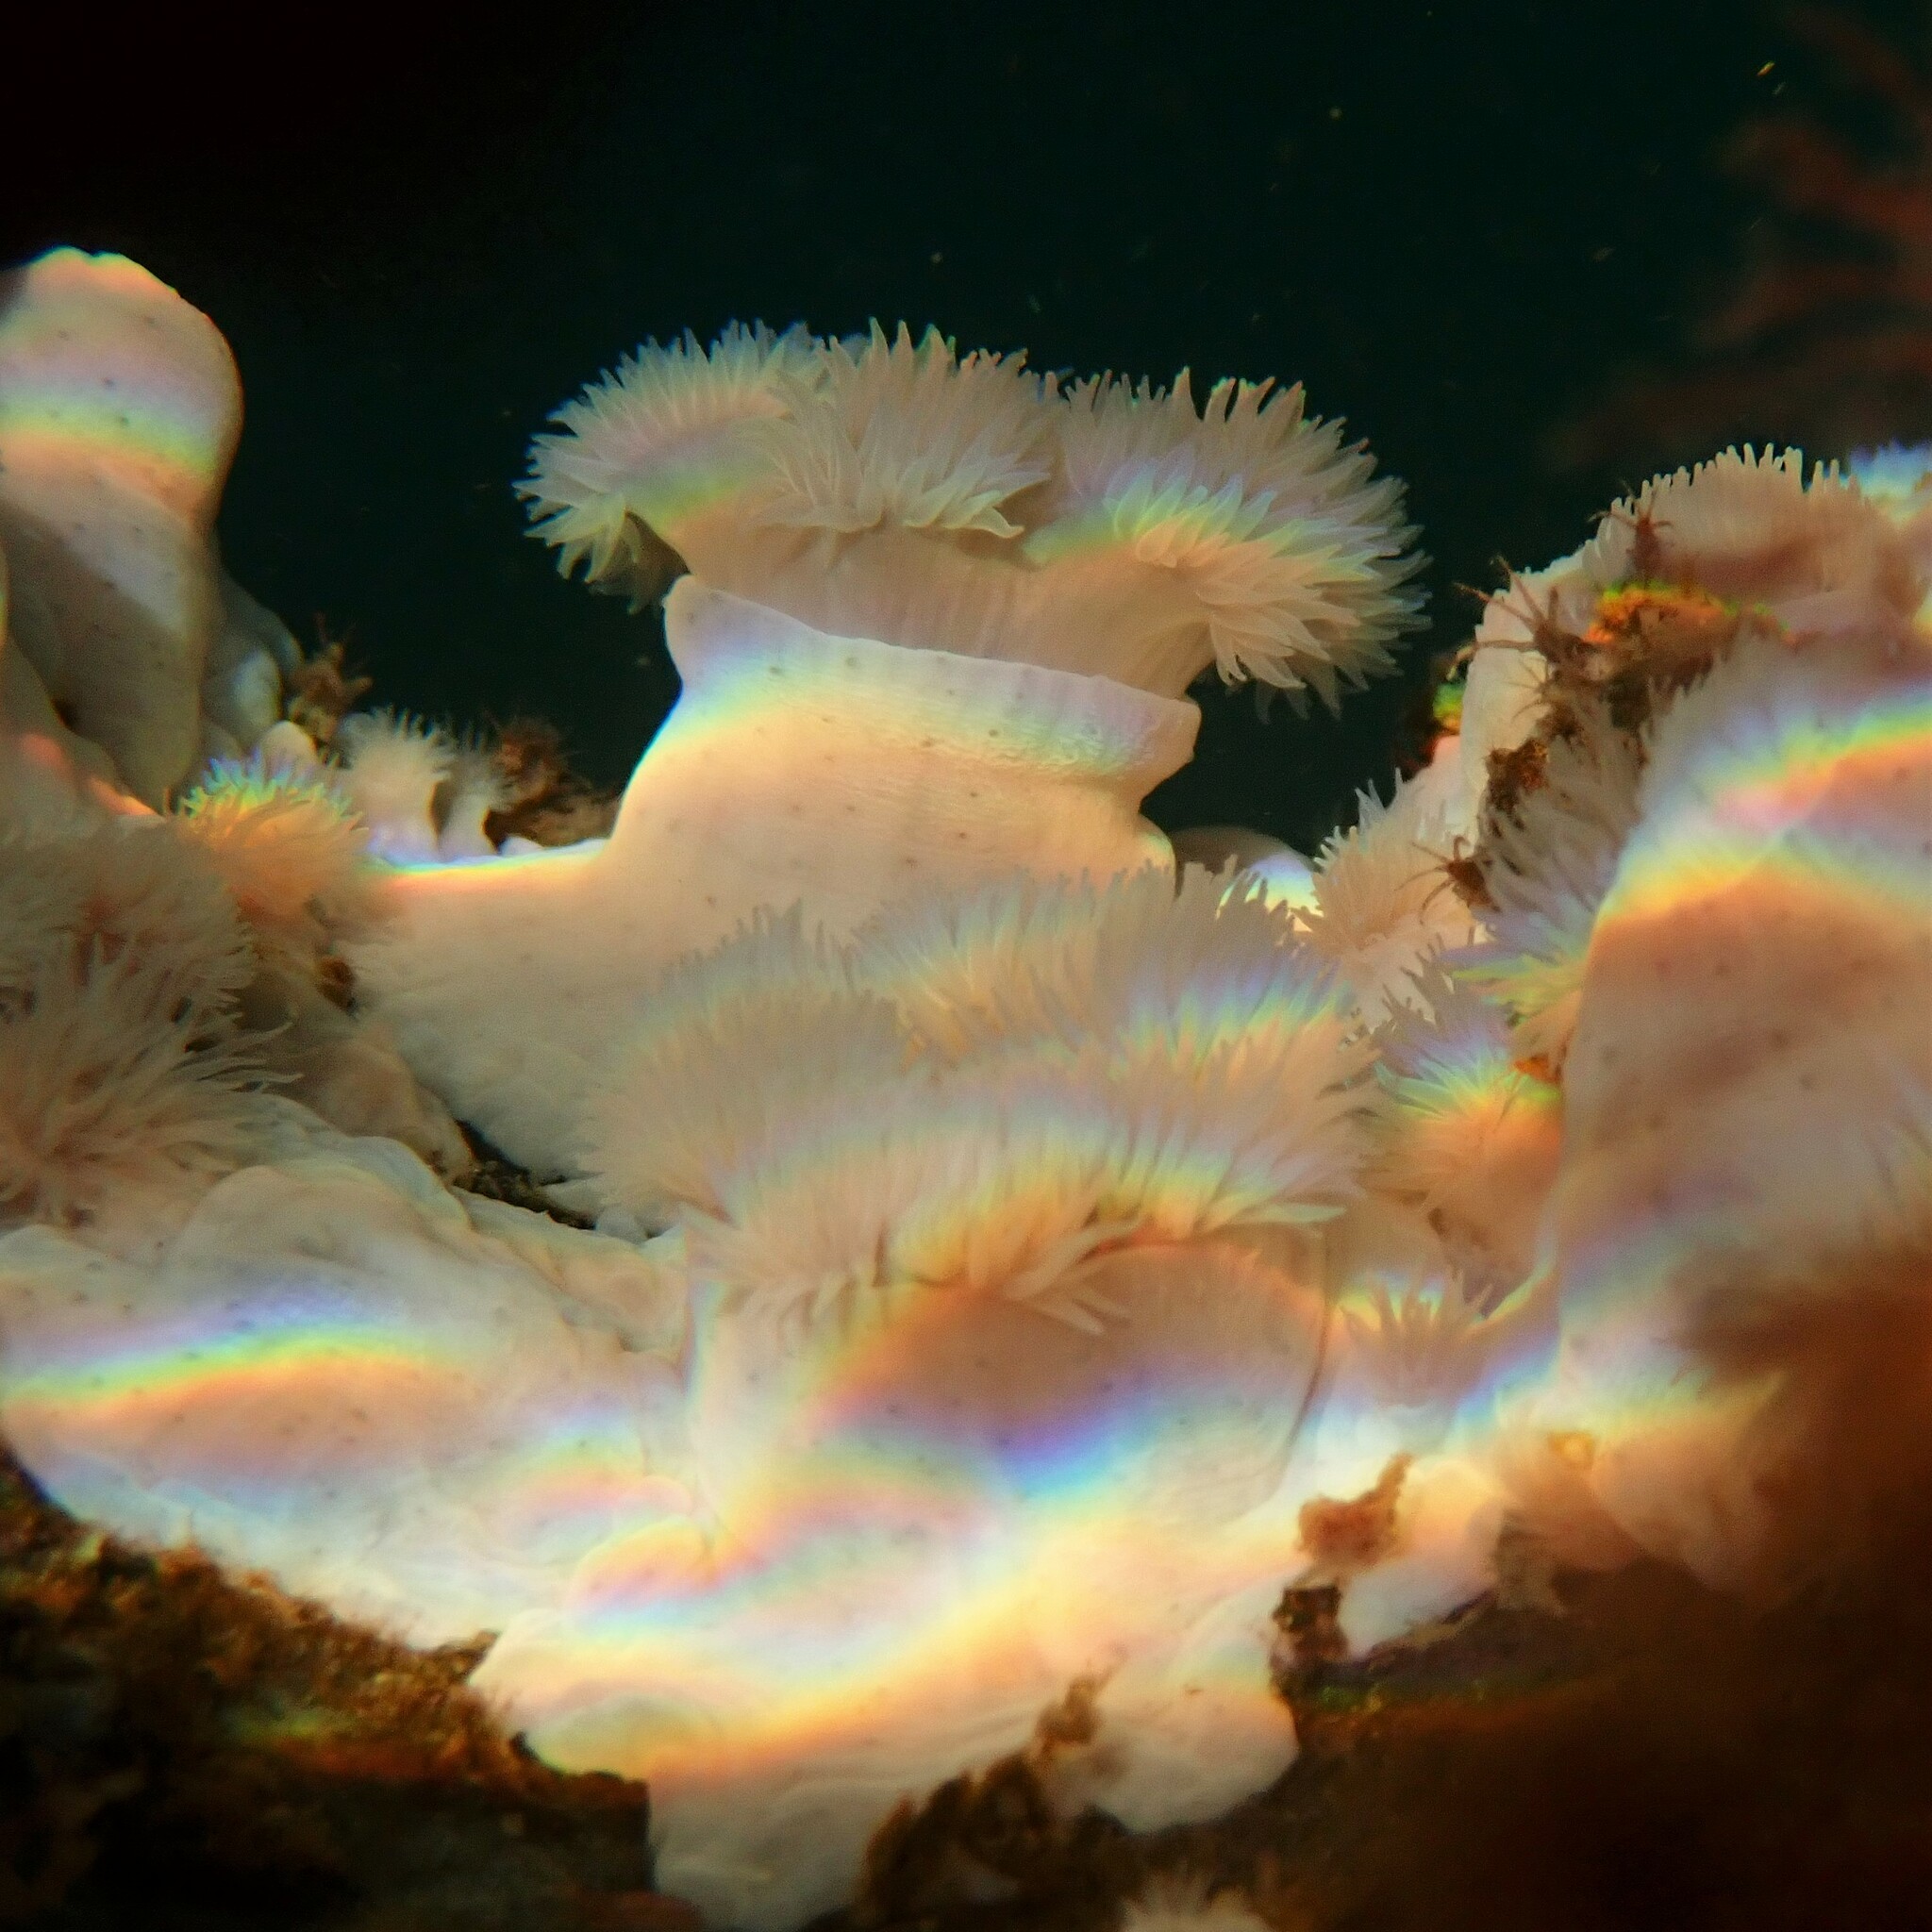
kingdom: Animalia
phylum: Cnidaria
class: Anthozoa
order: Actiniaria
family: Metridiidae
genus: Metridium
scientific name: Metridium senile
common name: Clonal plumose anemone
